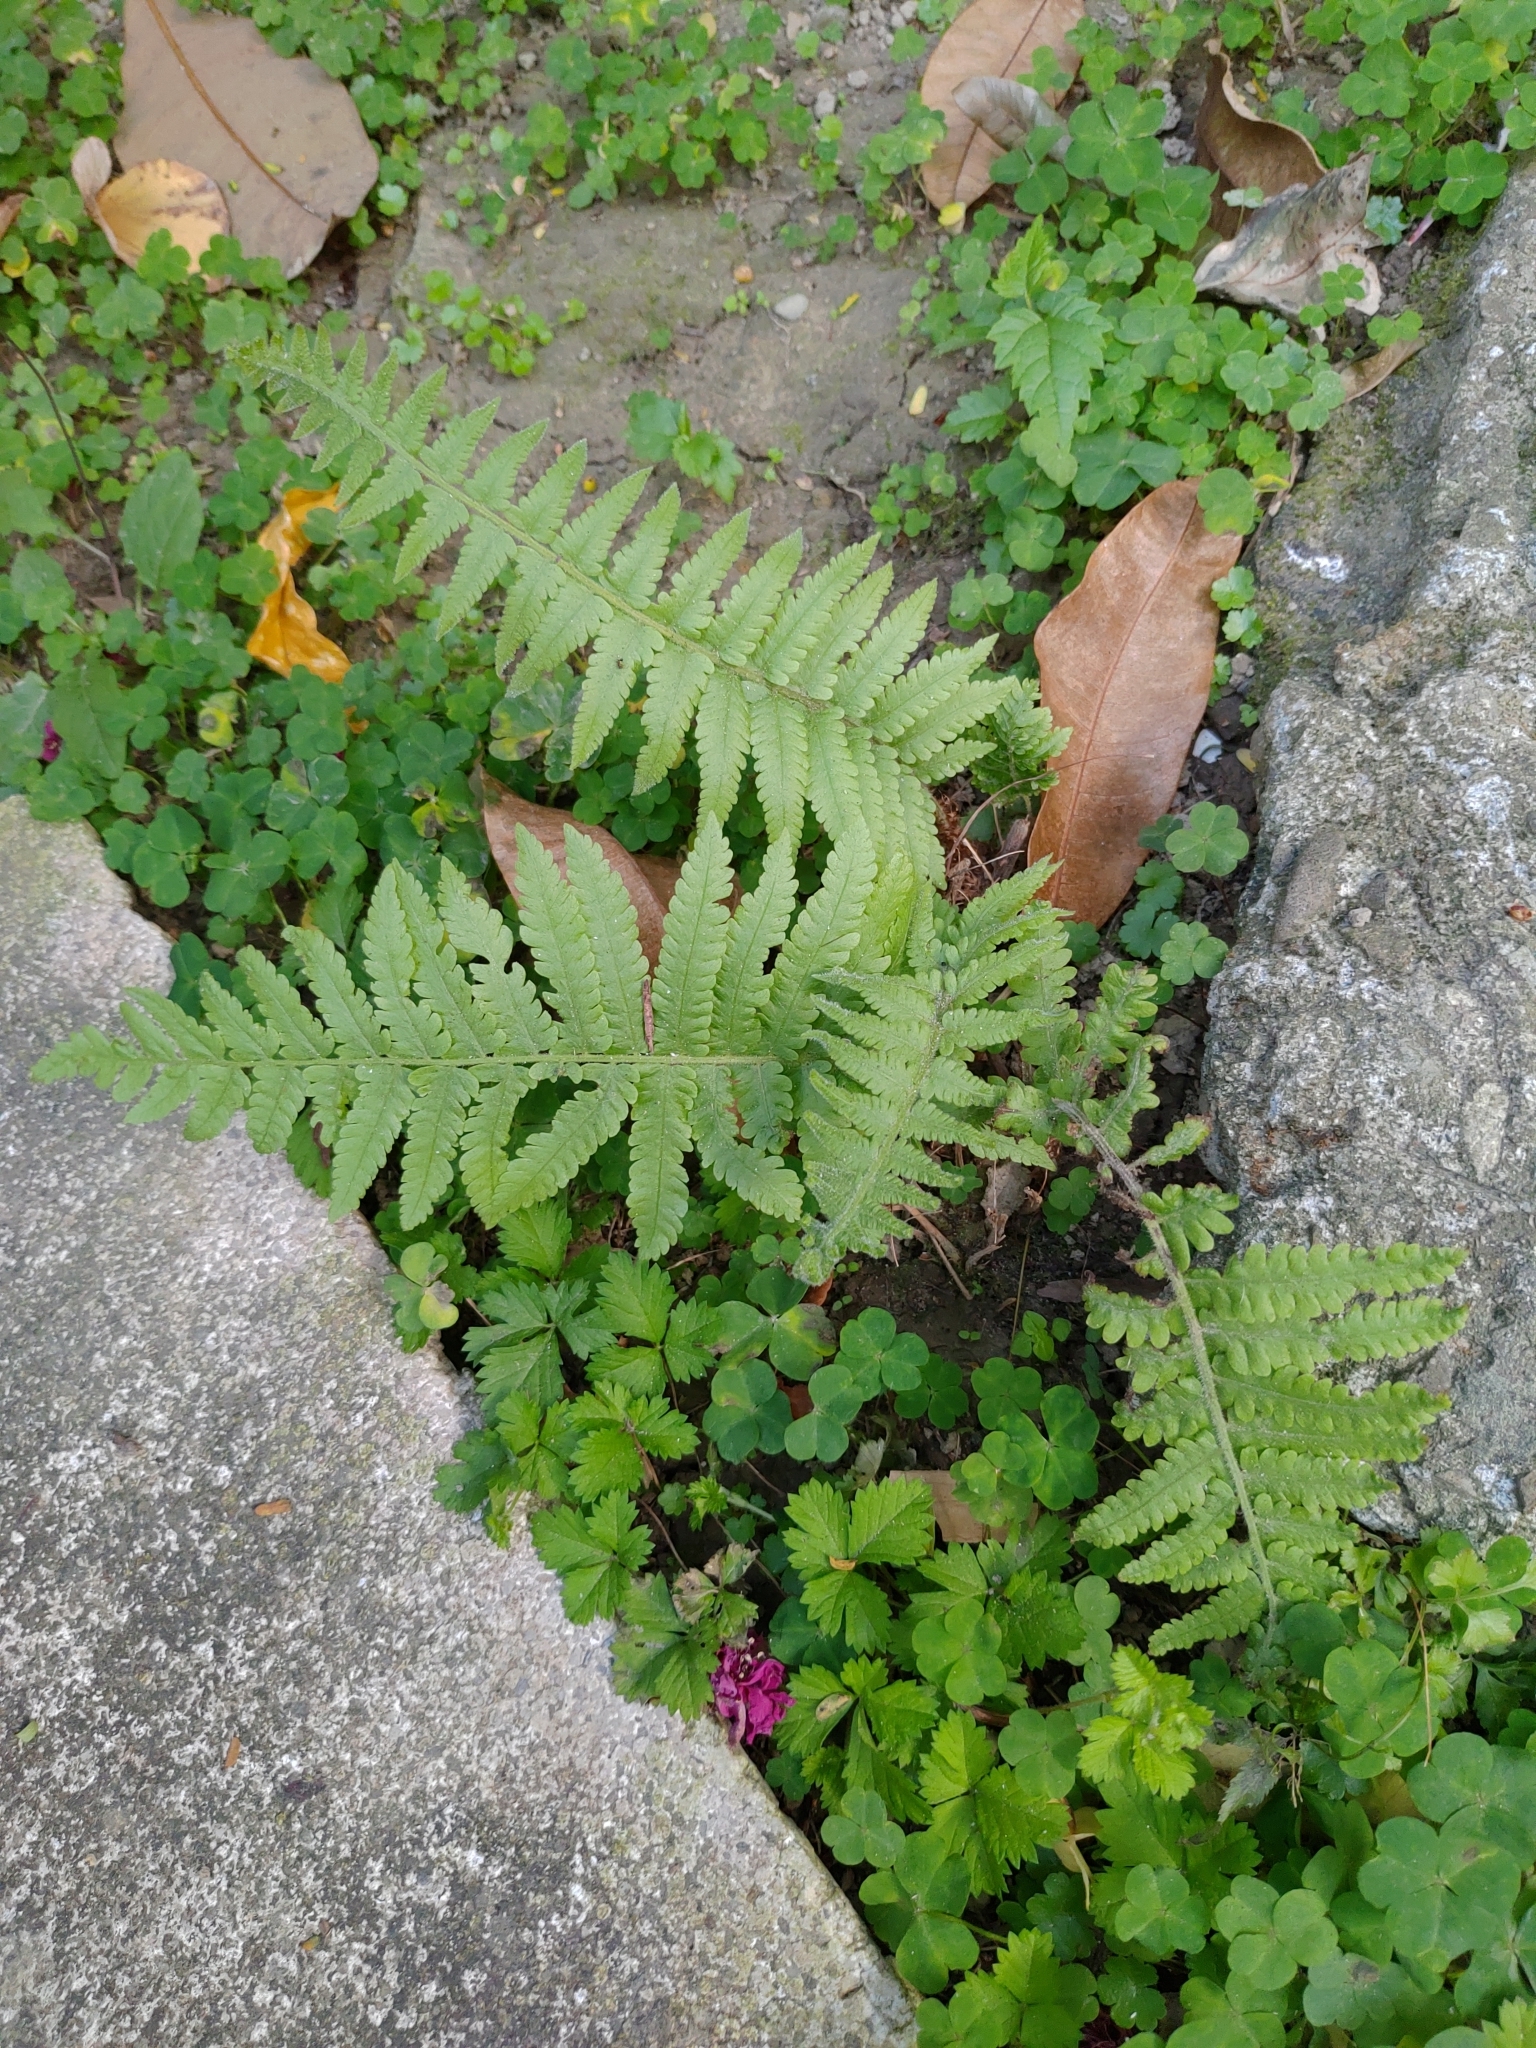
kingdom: Plantae
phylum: Tracheophyta
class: Polypodiopsida
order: Polypodiales
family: Thelypteridaceae
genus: Christella
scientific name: Christella parasitica
